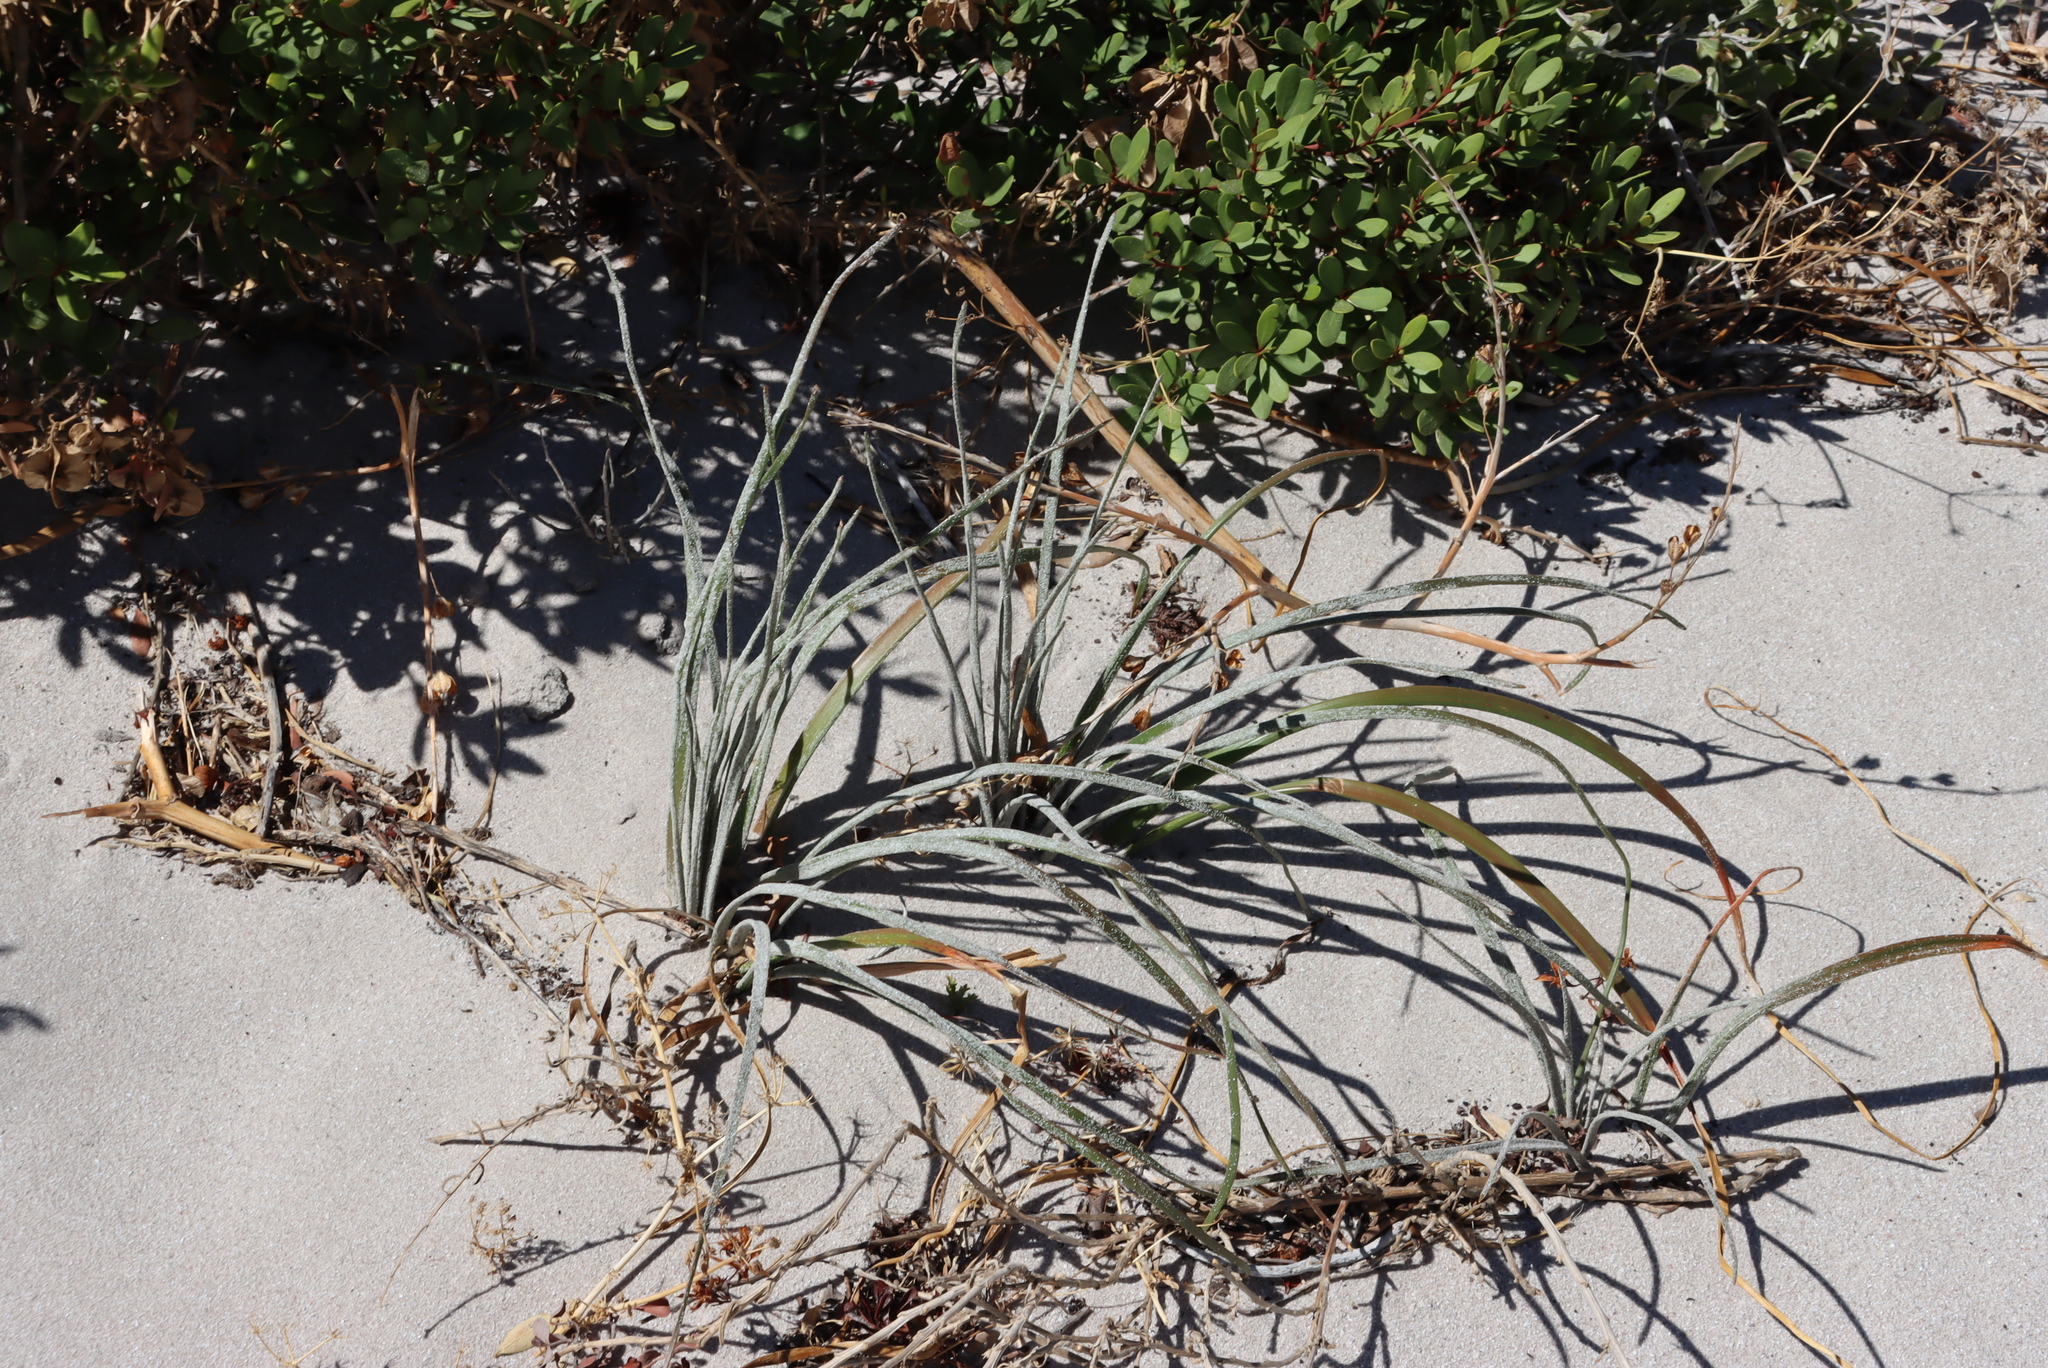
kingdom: Plantae
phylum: Tracheophyta
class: Liliopsida
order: Asparagales
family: Asphodelaceae
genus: Trachyandra
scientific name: Trachyandra revoluta
